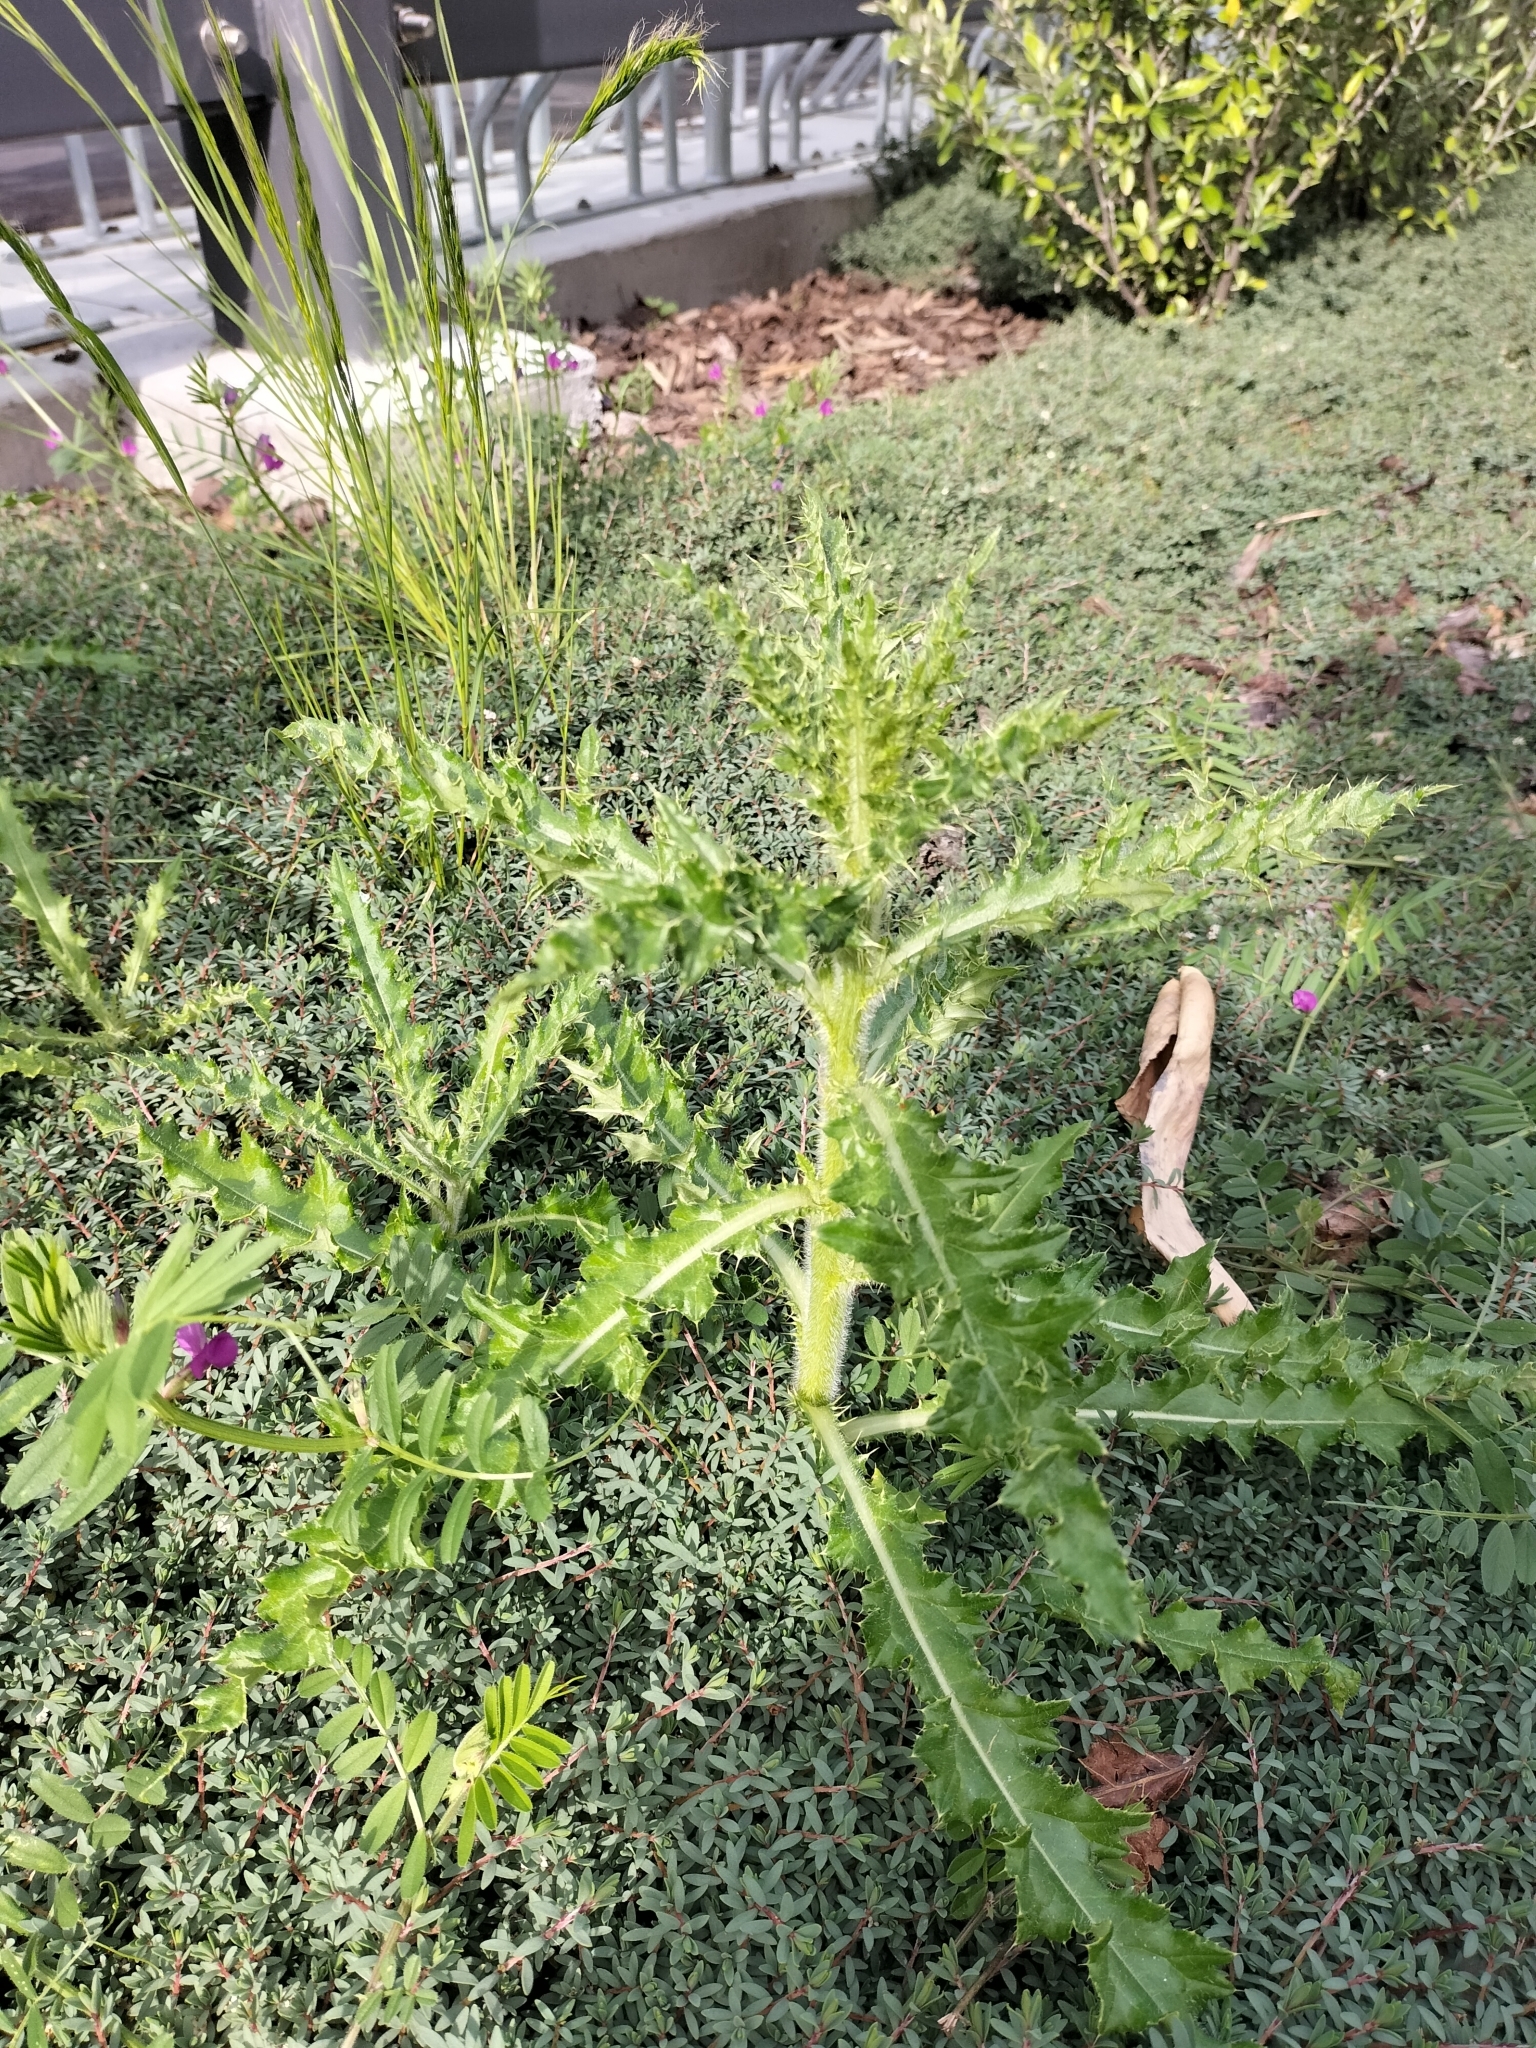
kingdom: Plantae
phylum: Tracheophyta
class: Magnoliopsida
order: Asterales
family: Asteraceae
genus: Cirsium
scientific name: Cirsium arvense
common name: Creeping thistle
